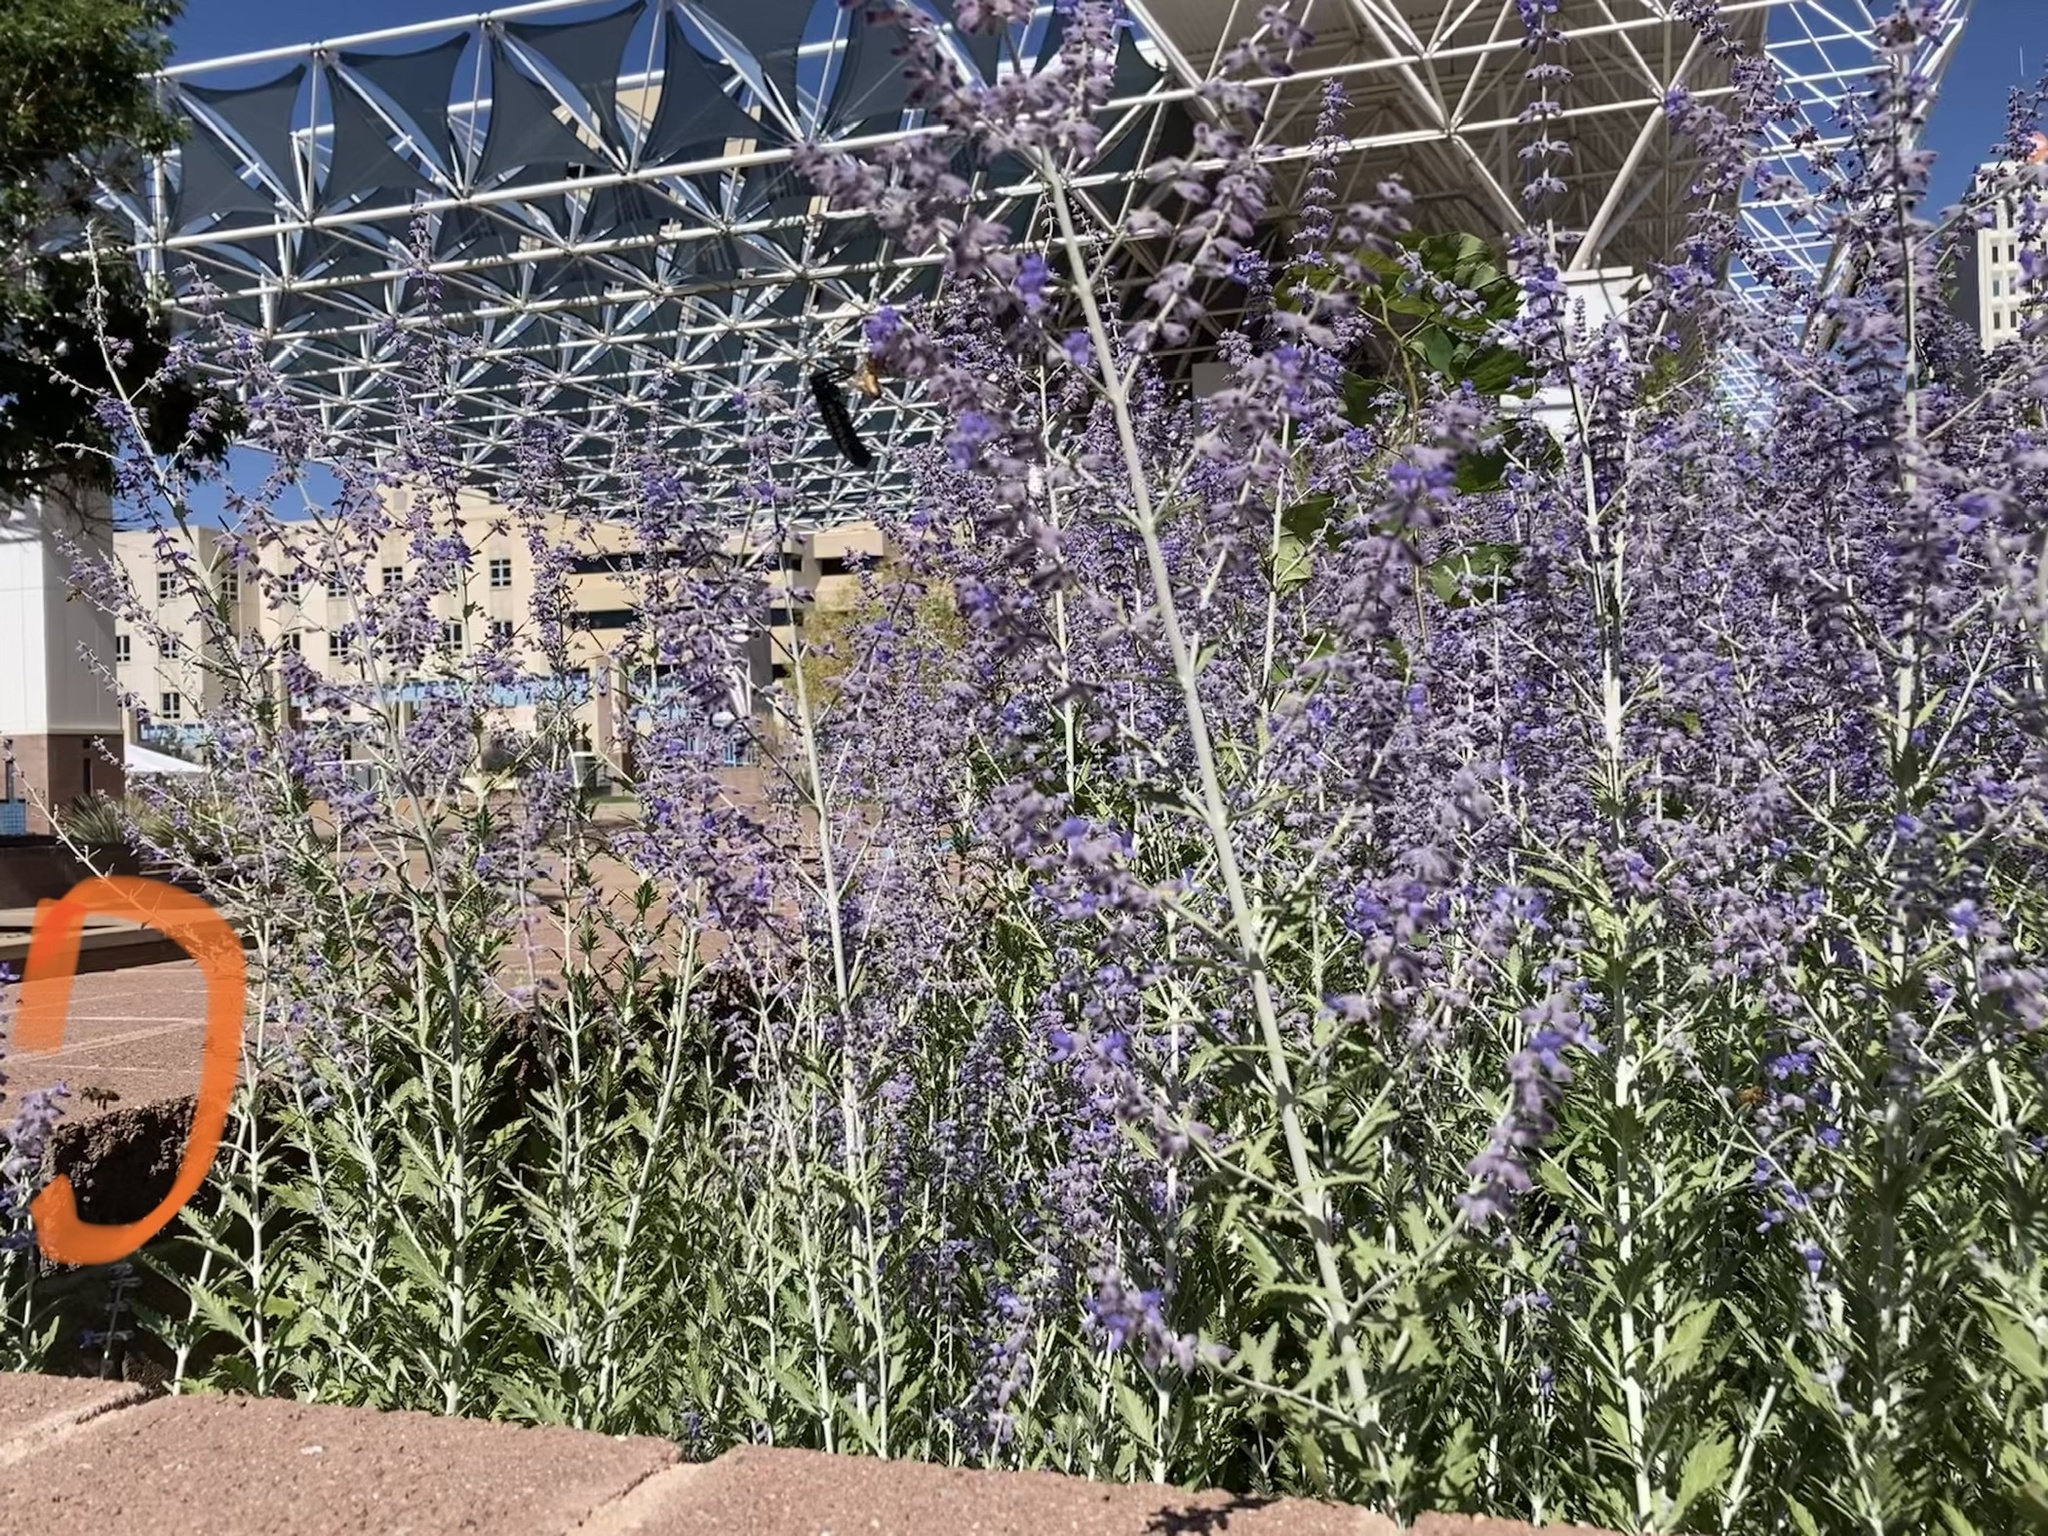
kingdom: Animalia
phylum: Arthropoda
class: Insecta
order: Hymenoptera
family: Apidae
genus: Apis
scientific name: Apis mellifera
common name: Honey bee
